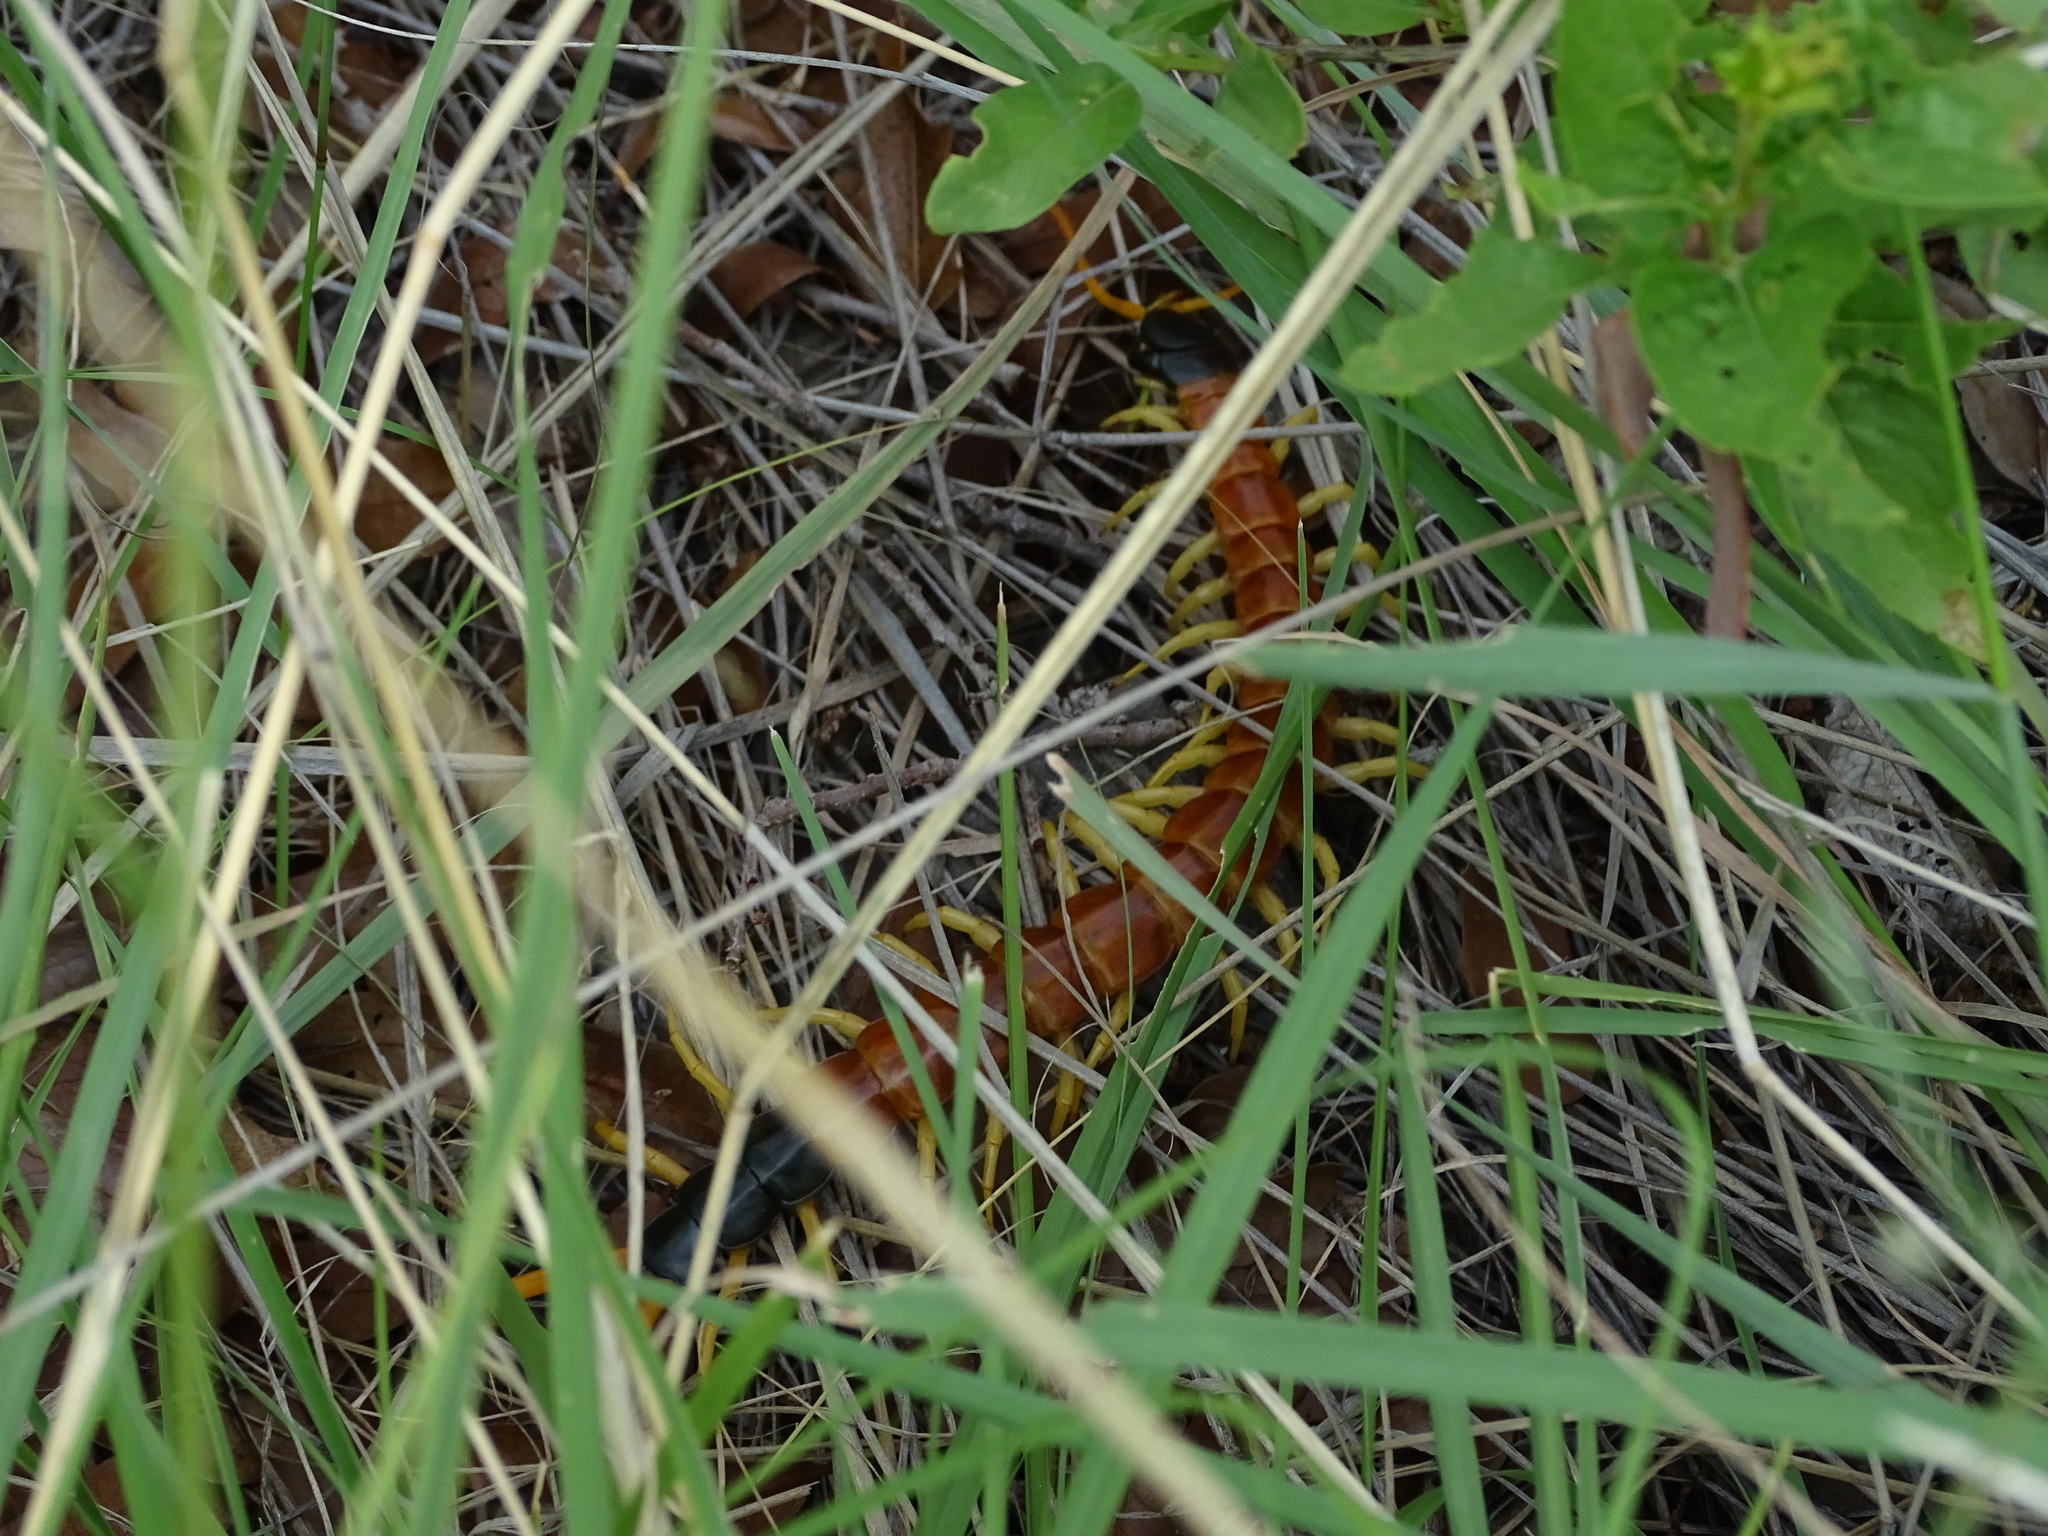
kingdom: Animalia
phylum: Arthropoda
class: Chilopoda
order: Scolopendromorpha
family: Scolopendridae
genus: Scolopendra
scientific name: Scolopendra heros
